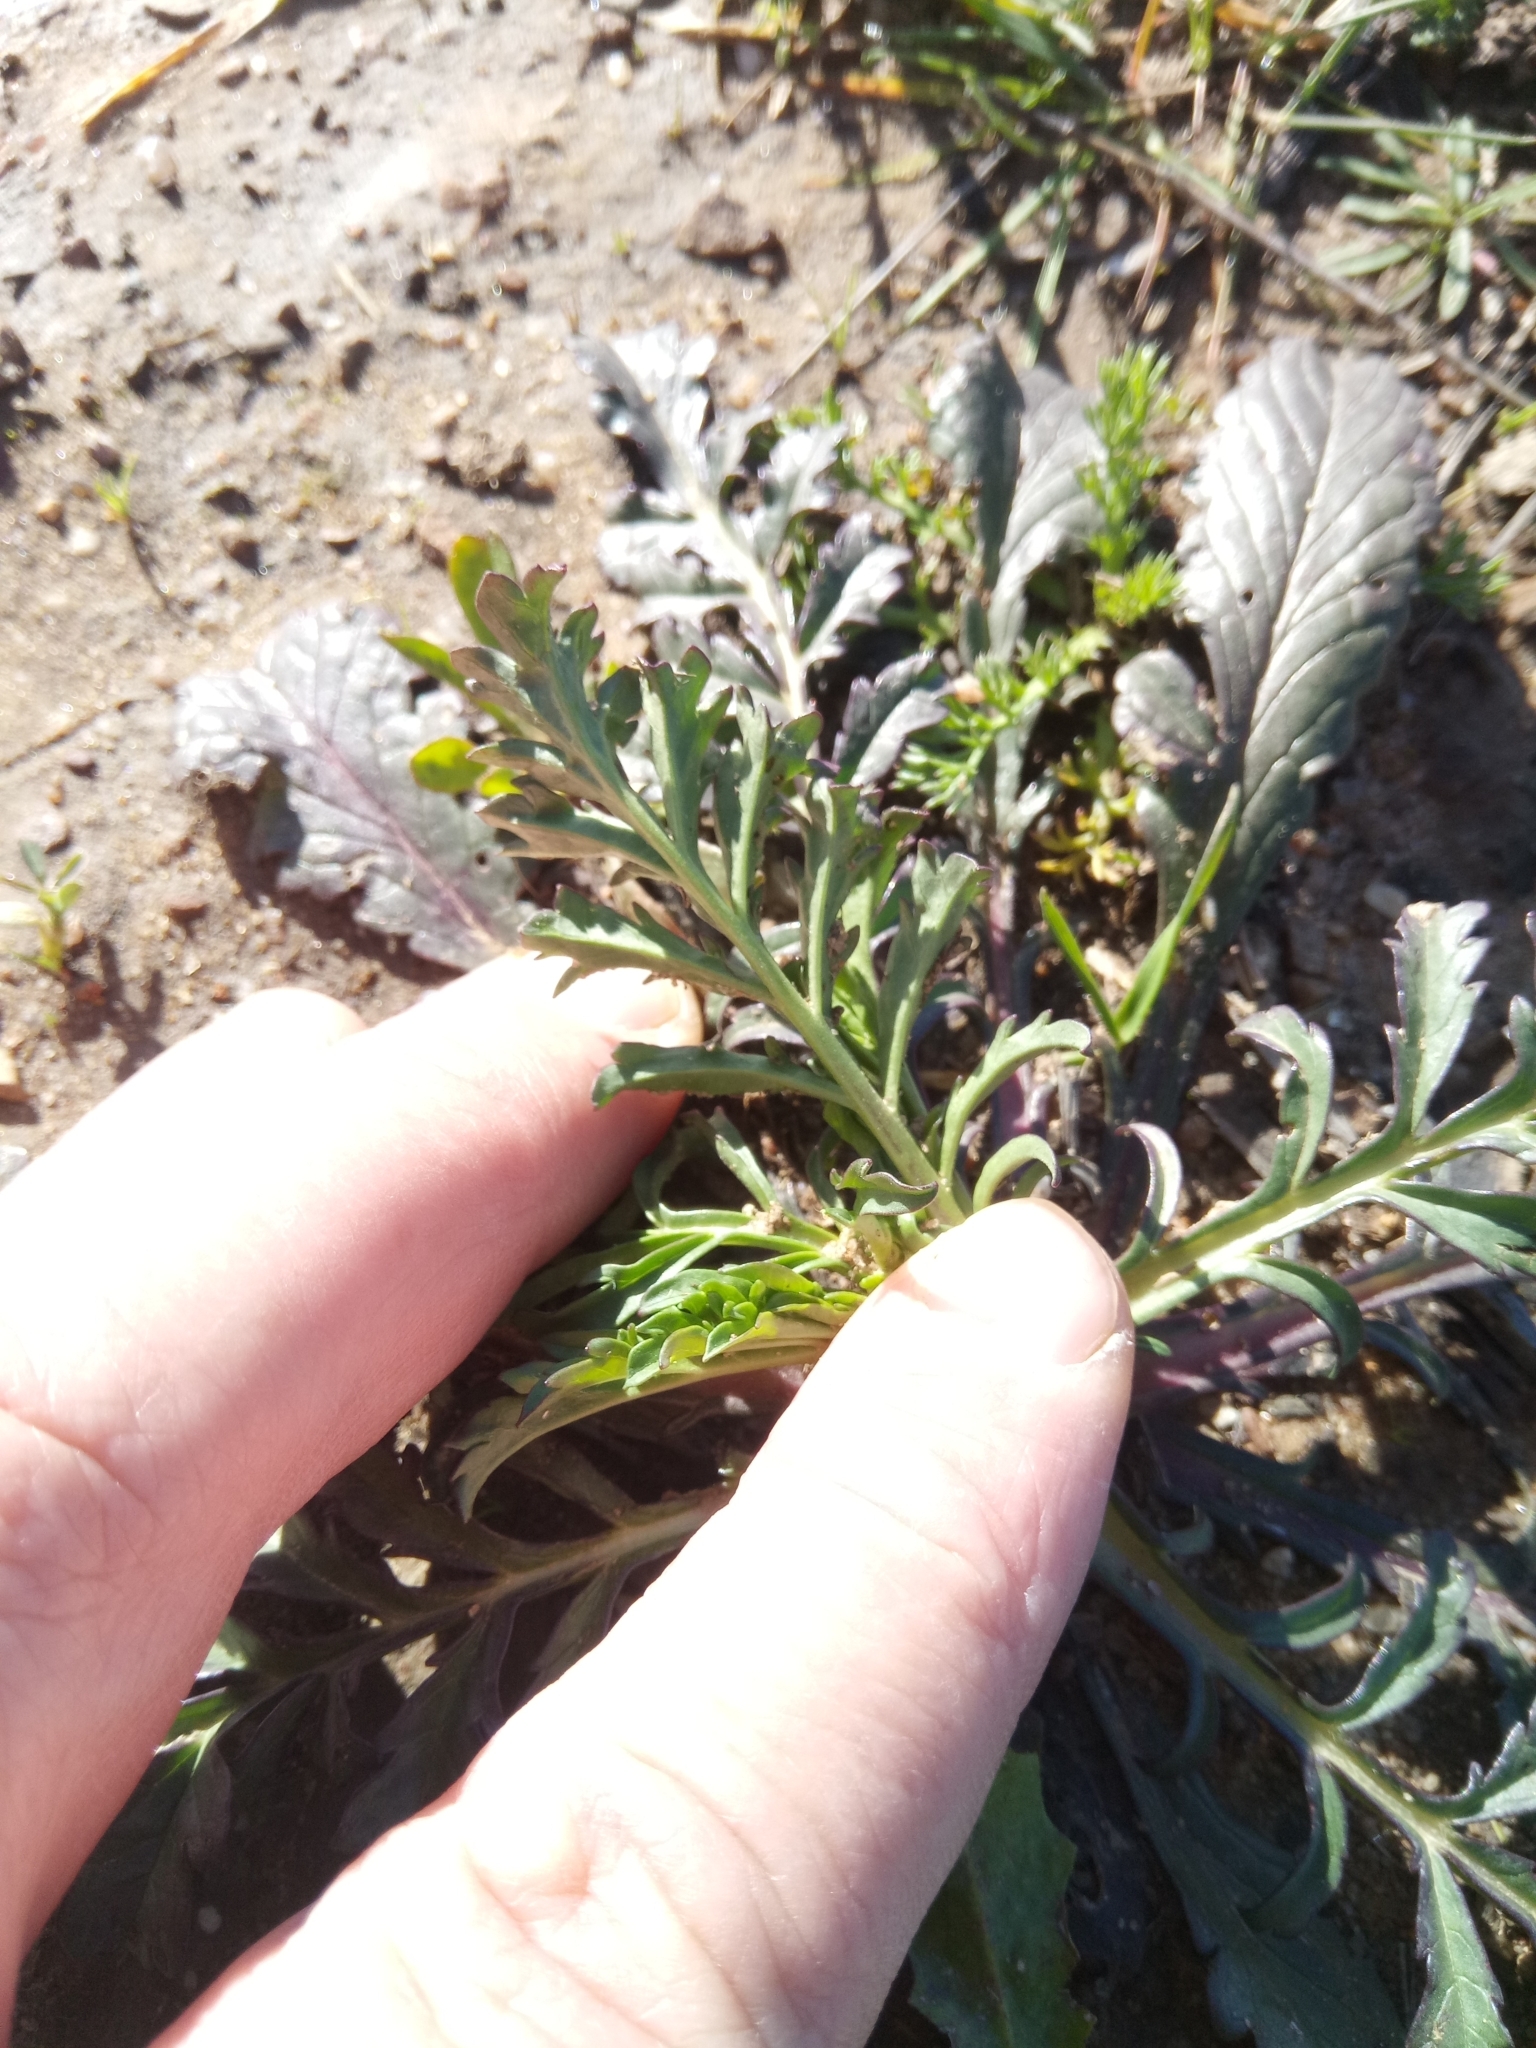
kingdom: Plantae
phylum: Tracheophyta
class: Magnoliopsida
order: Dipsacales
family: Caprifoliaceae
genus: Sixalix
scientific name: Sixalix maritima
